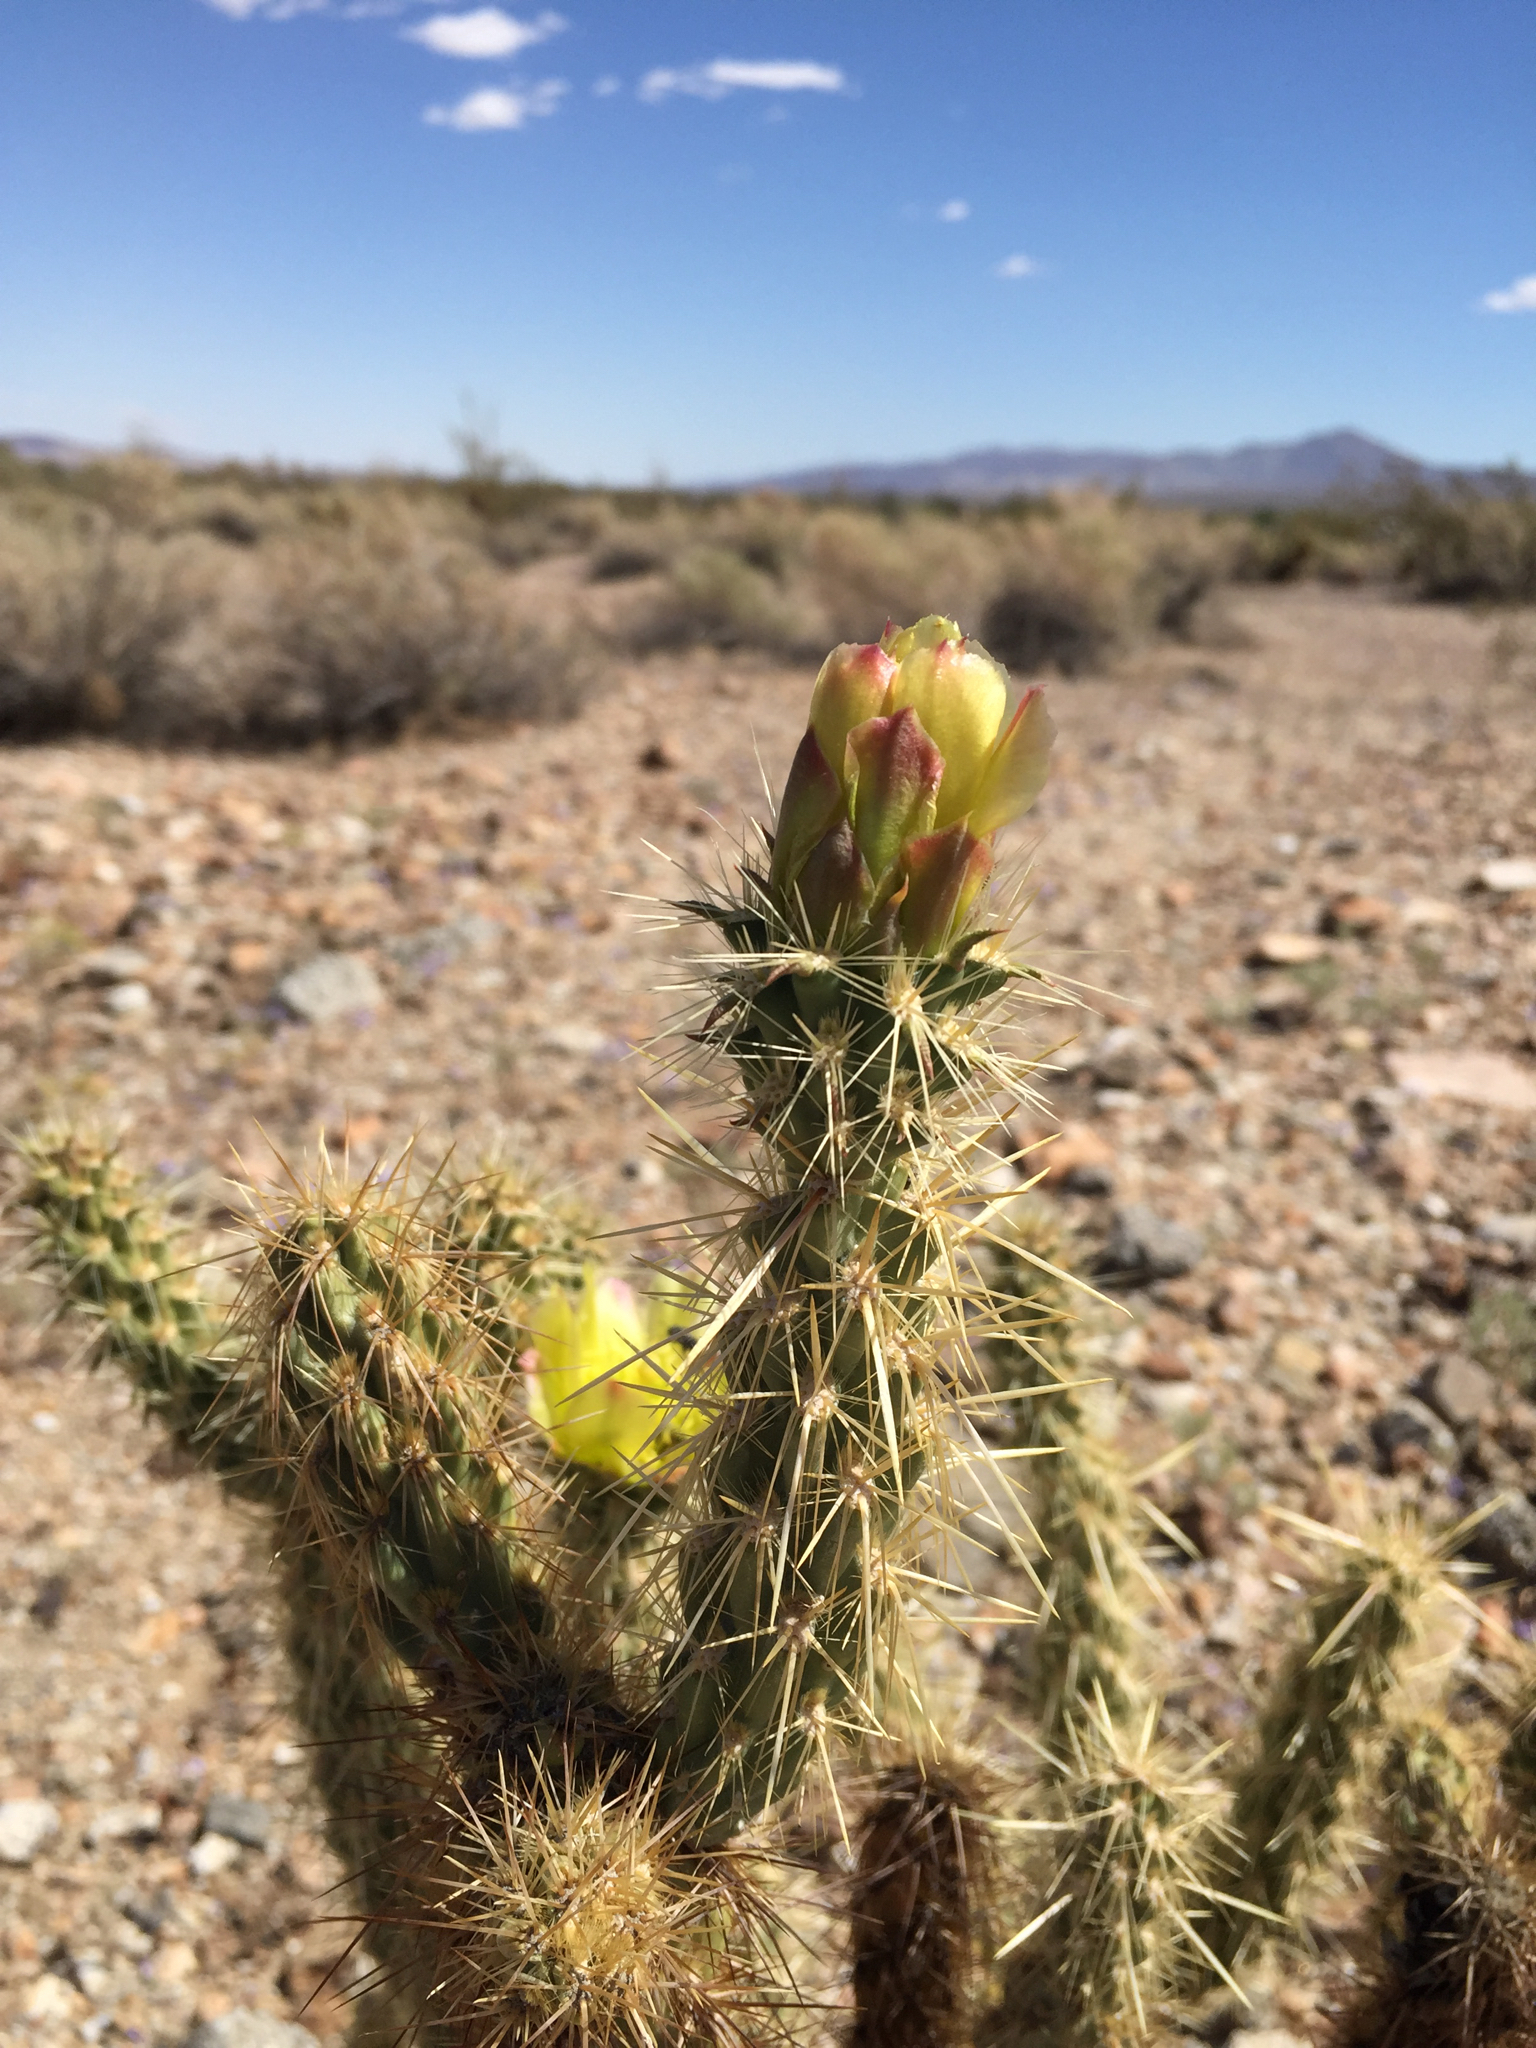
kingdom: Plantae
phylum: Tracheophyta
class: Magnoliopsida
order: Caryophyllales
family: Cactaceae
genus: Cylindropuntia
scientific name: Cylindropuntia ganderi
